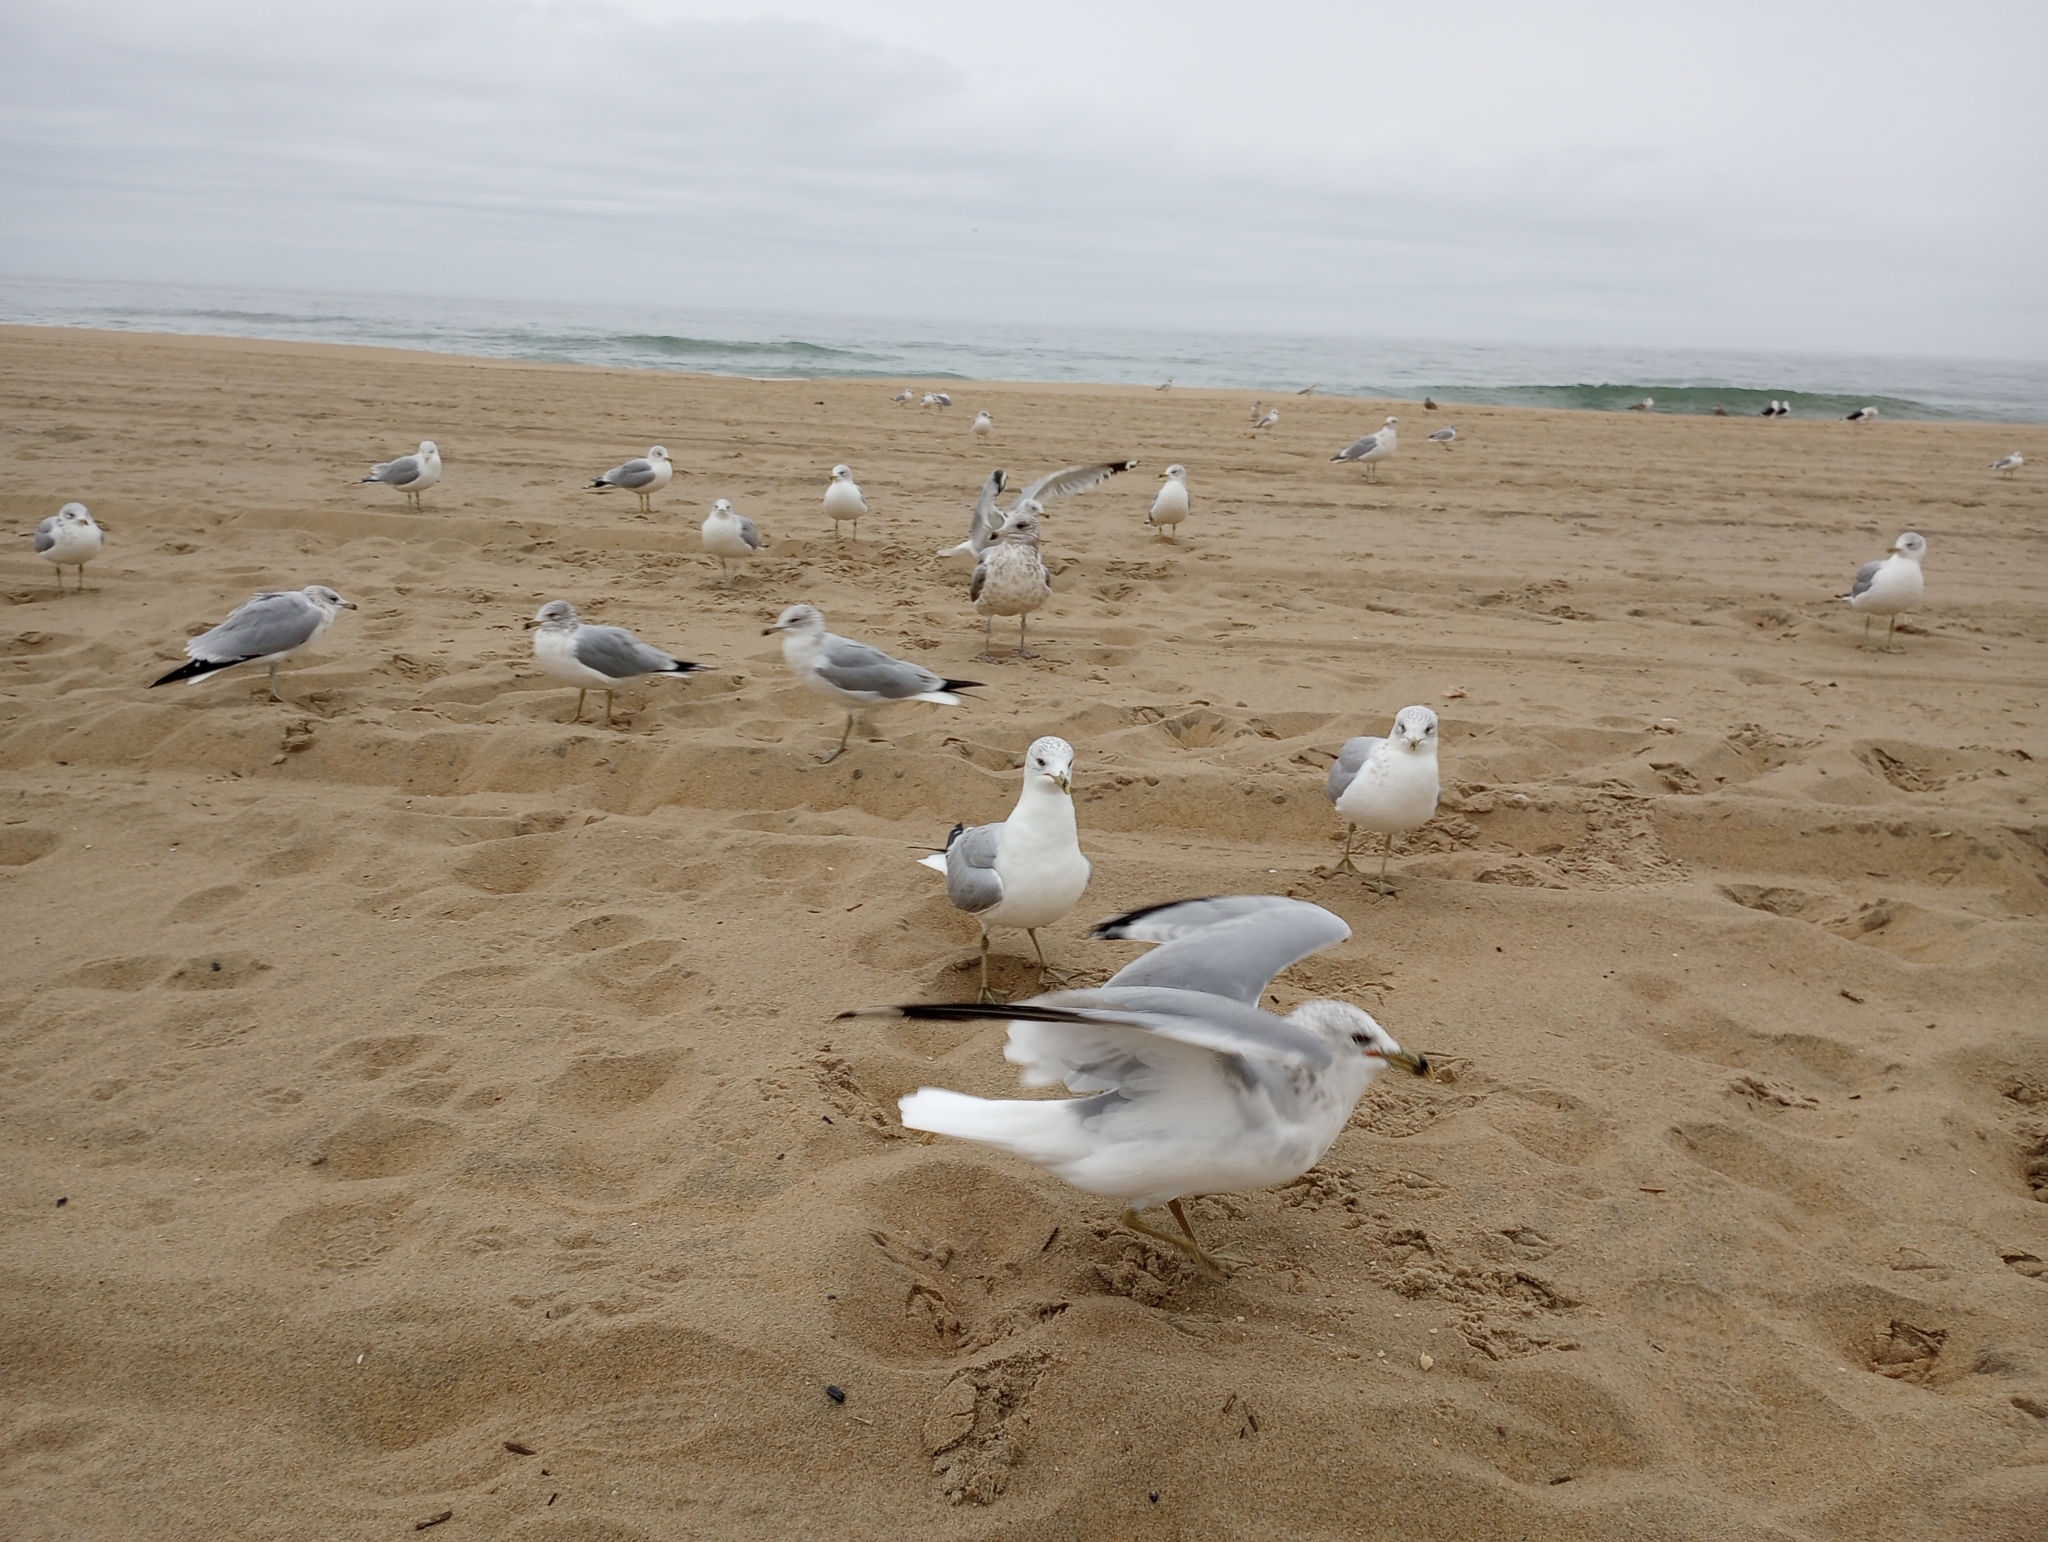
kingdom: Animalia
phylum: Chordata
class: Aves
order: Charadriiformes
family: Laridae
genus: Larus
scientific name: Larus delawarensis
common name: Ring-billed gull
